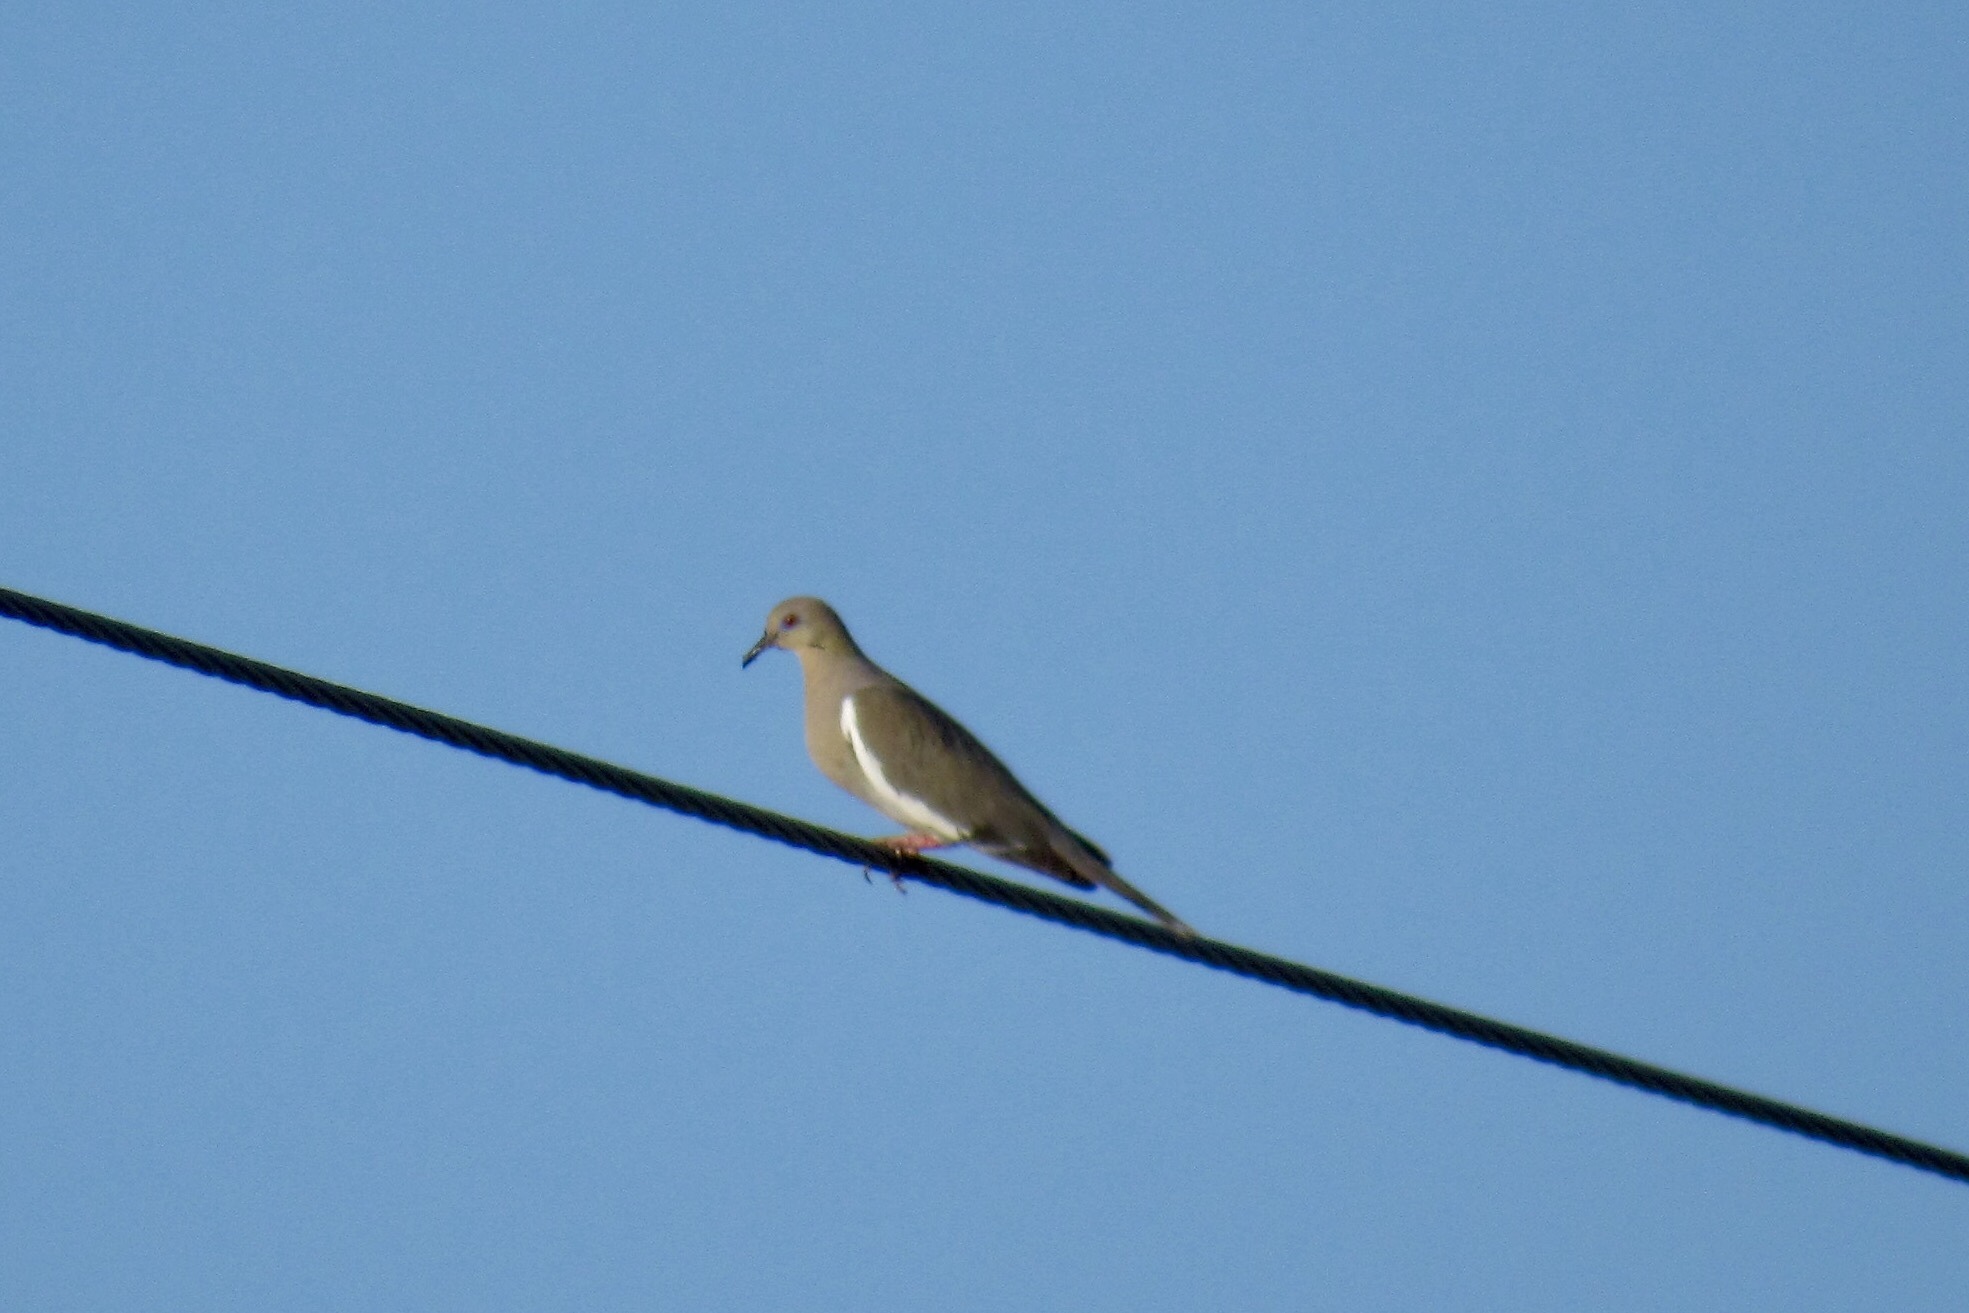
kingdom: Animalia
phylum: Chordata
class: Aves
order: Columbiformes
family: Columbidae
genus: Zenaida
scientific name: Zenaida asiatica
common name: White-winged dove
